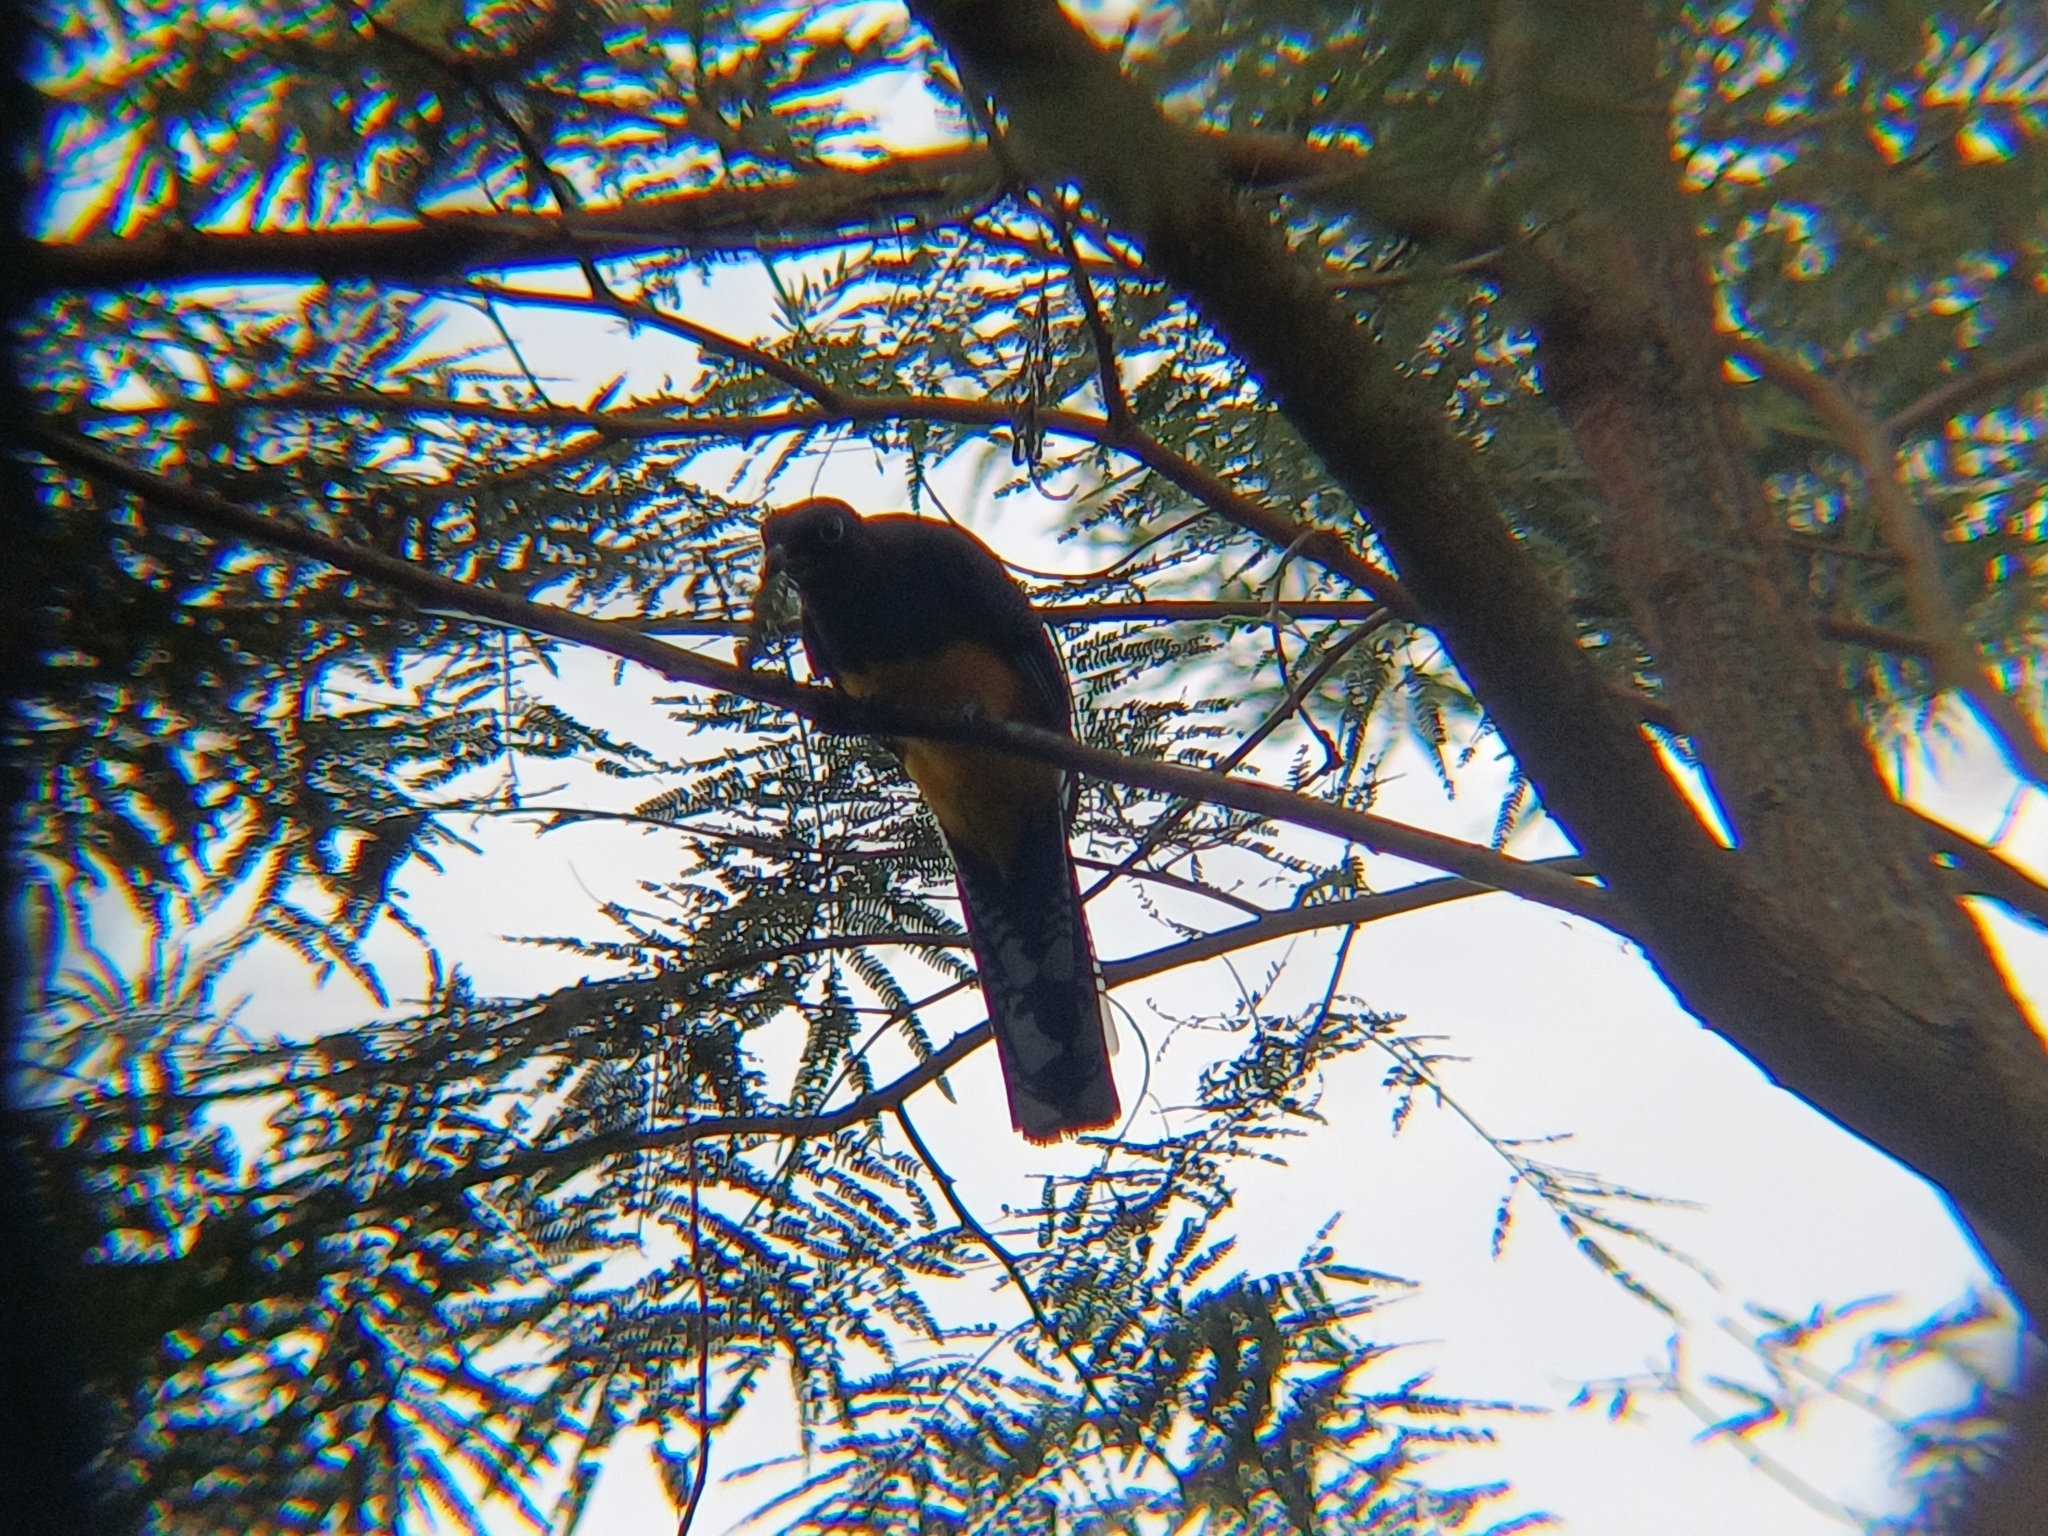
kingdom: Animalia
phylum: Chordata
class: Aves
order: Trogoniformes
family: Trogonidae
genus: Trogon
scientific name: Trogon viridis
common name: Green-backed trogon
